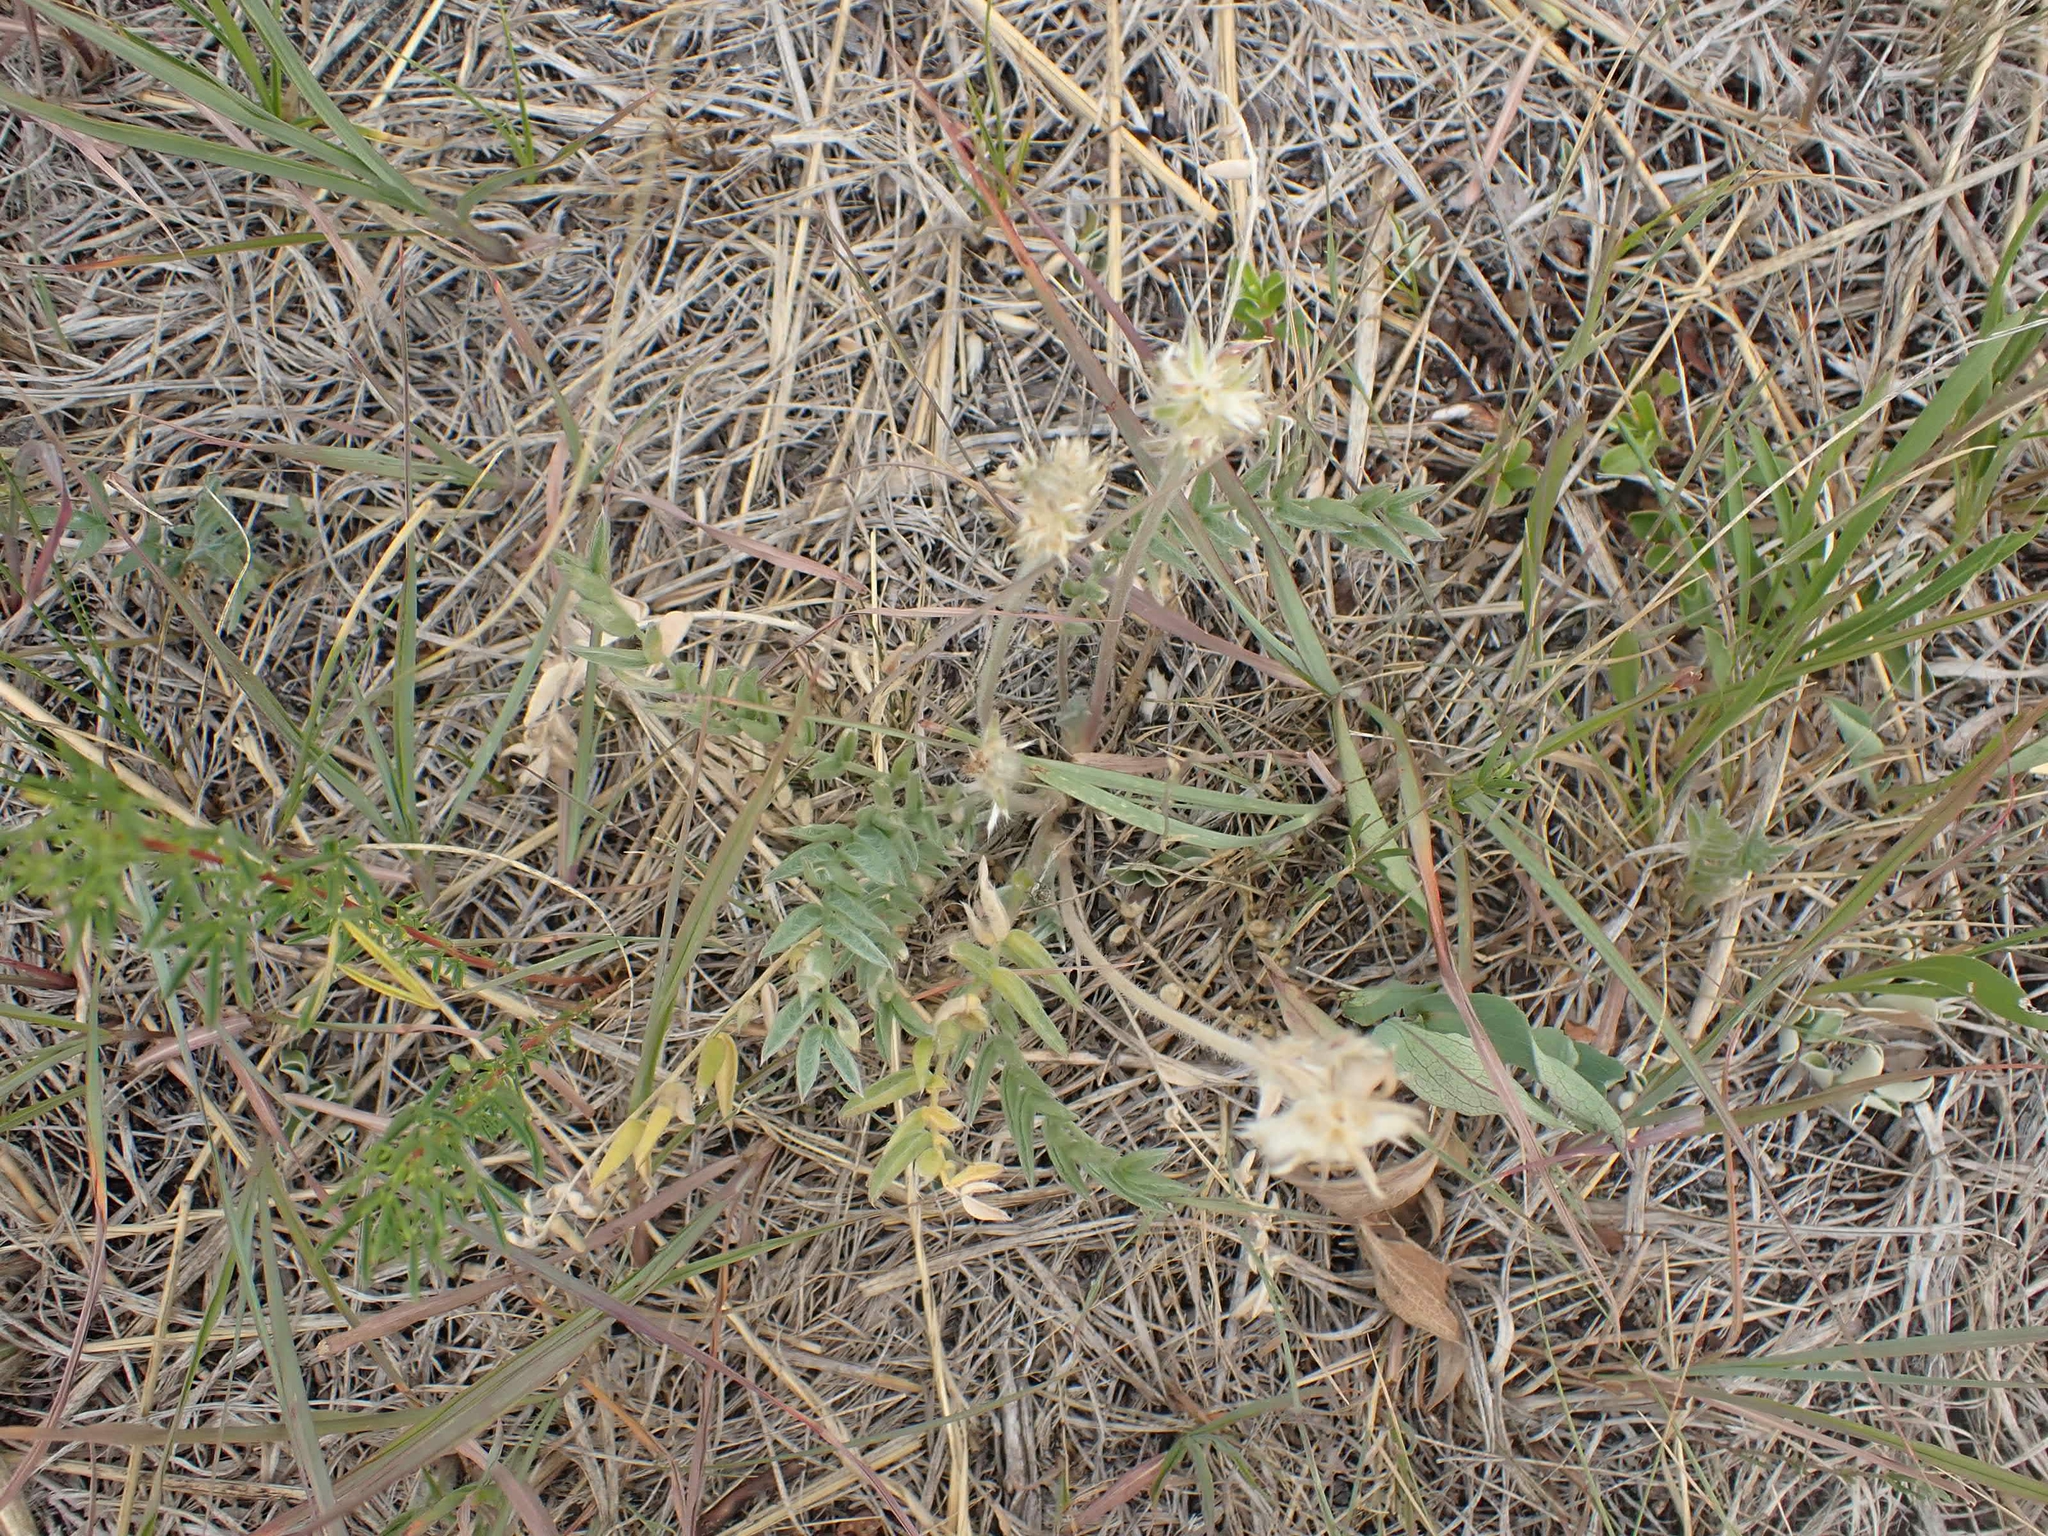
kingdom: Plantae
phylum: Tracheophyta
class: Magnoliopsida
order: Fabales
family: Fabaceae
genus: Oxytropis
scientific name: Oxytropis campestris
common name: Field locoweed
